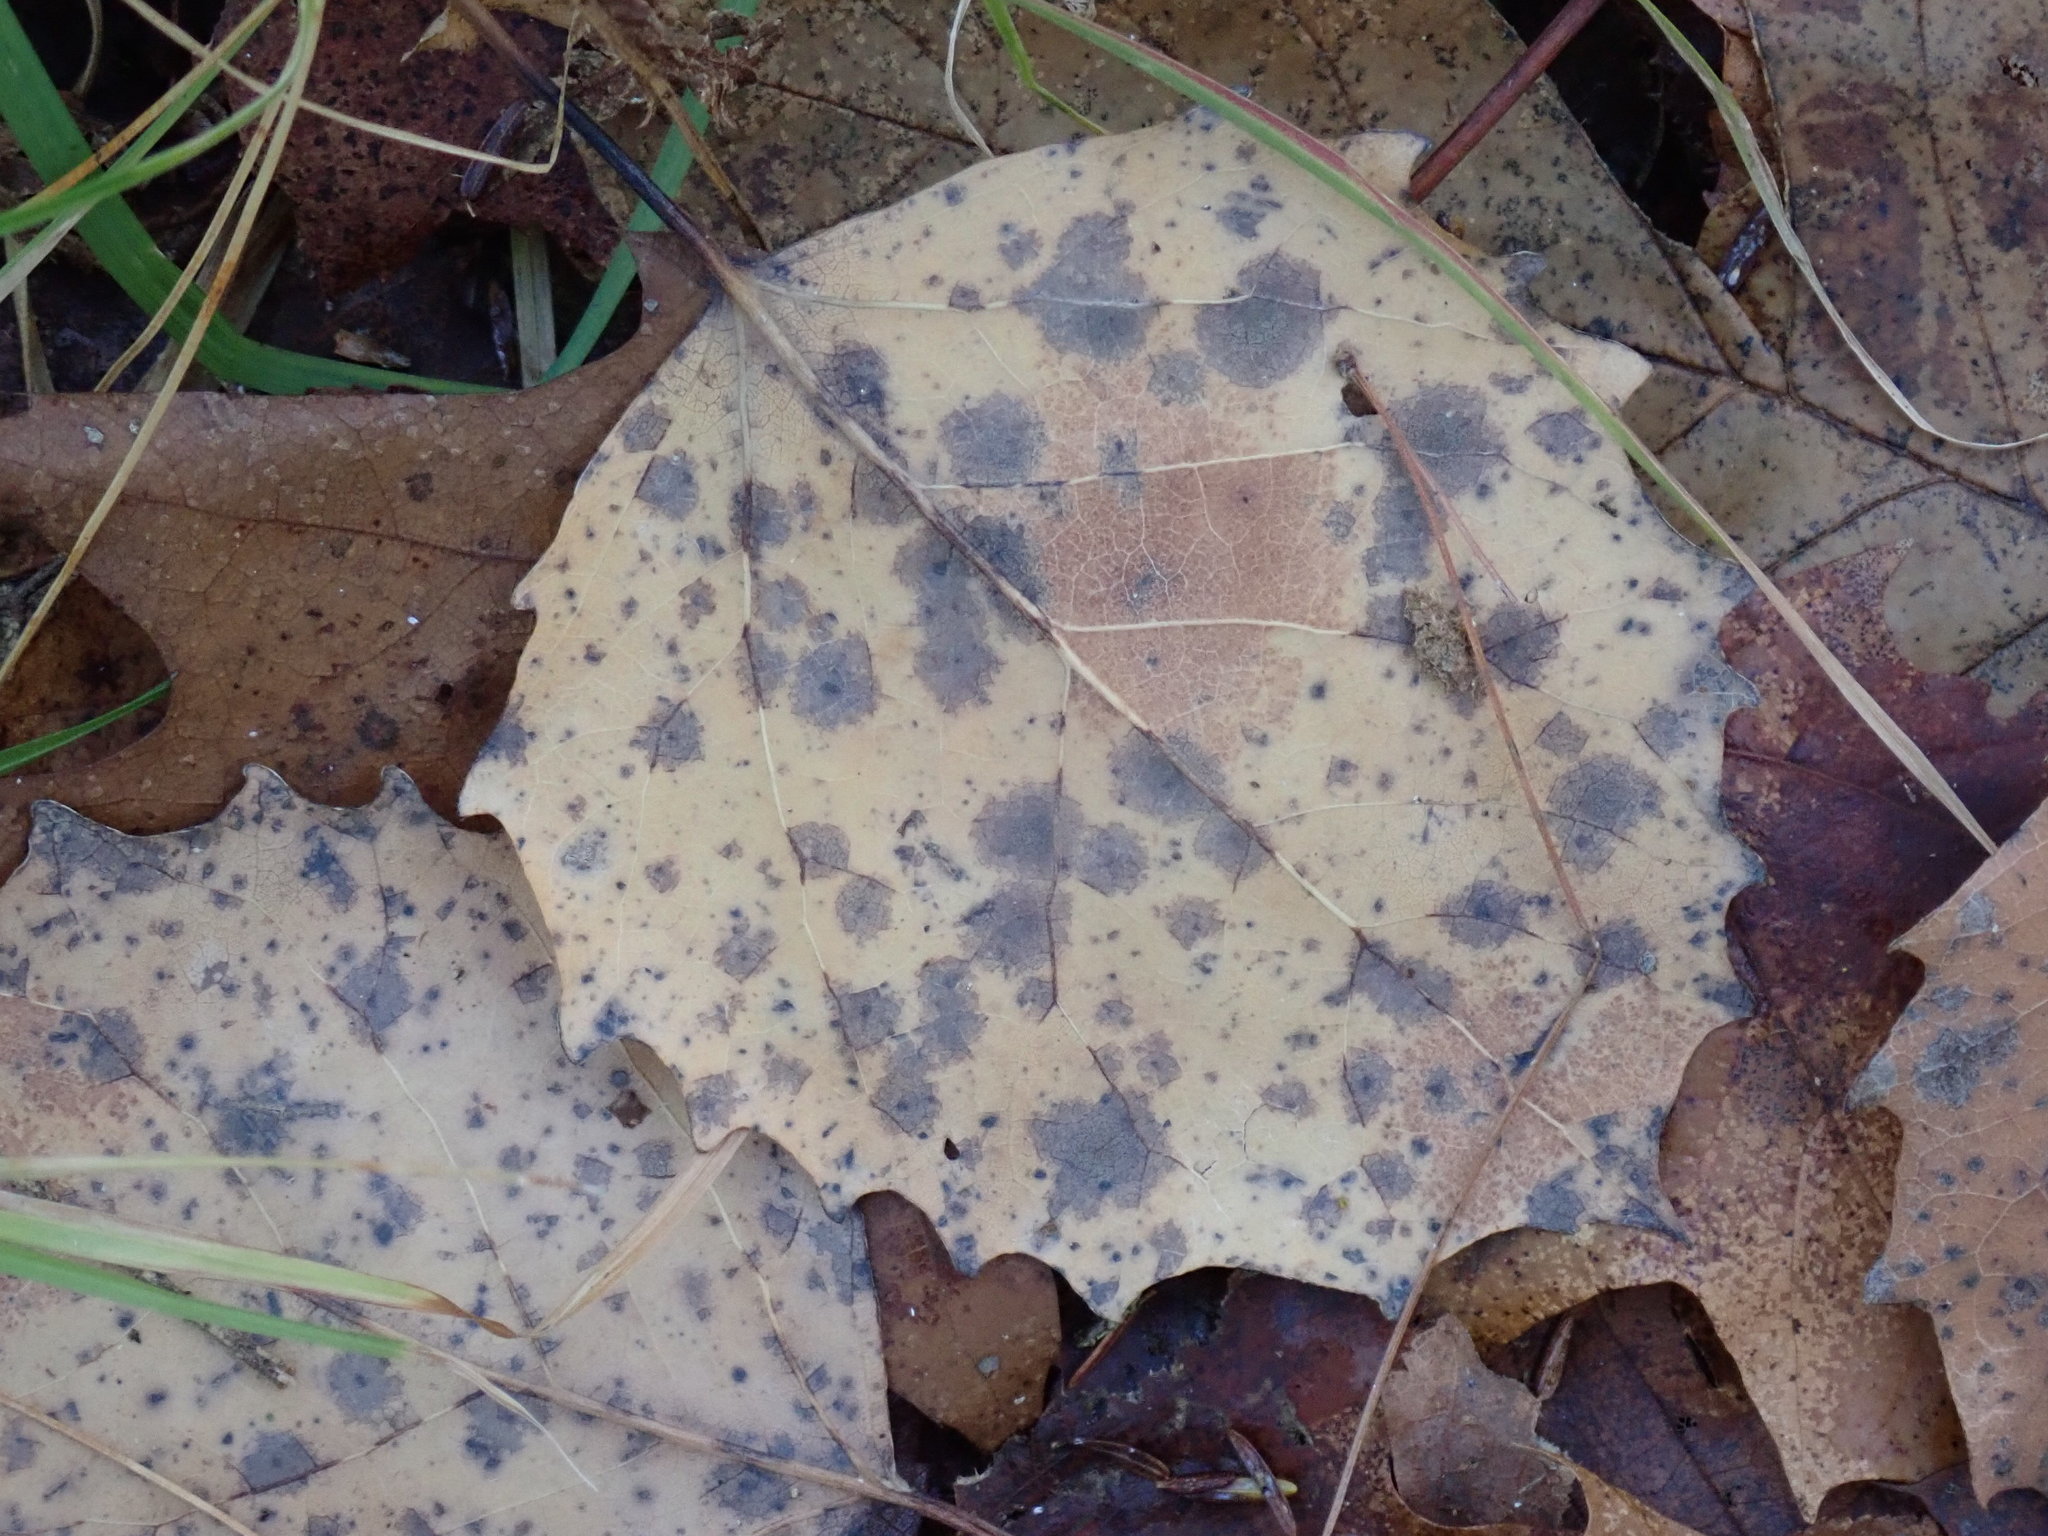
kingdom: Plantae
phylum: Tracheophyta
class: Magnoliopsida
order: Malpighiales
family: Salicaceae
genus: Populus
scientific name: Populus grandidentata
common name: Bigtooth aspen
